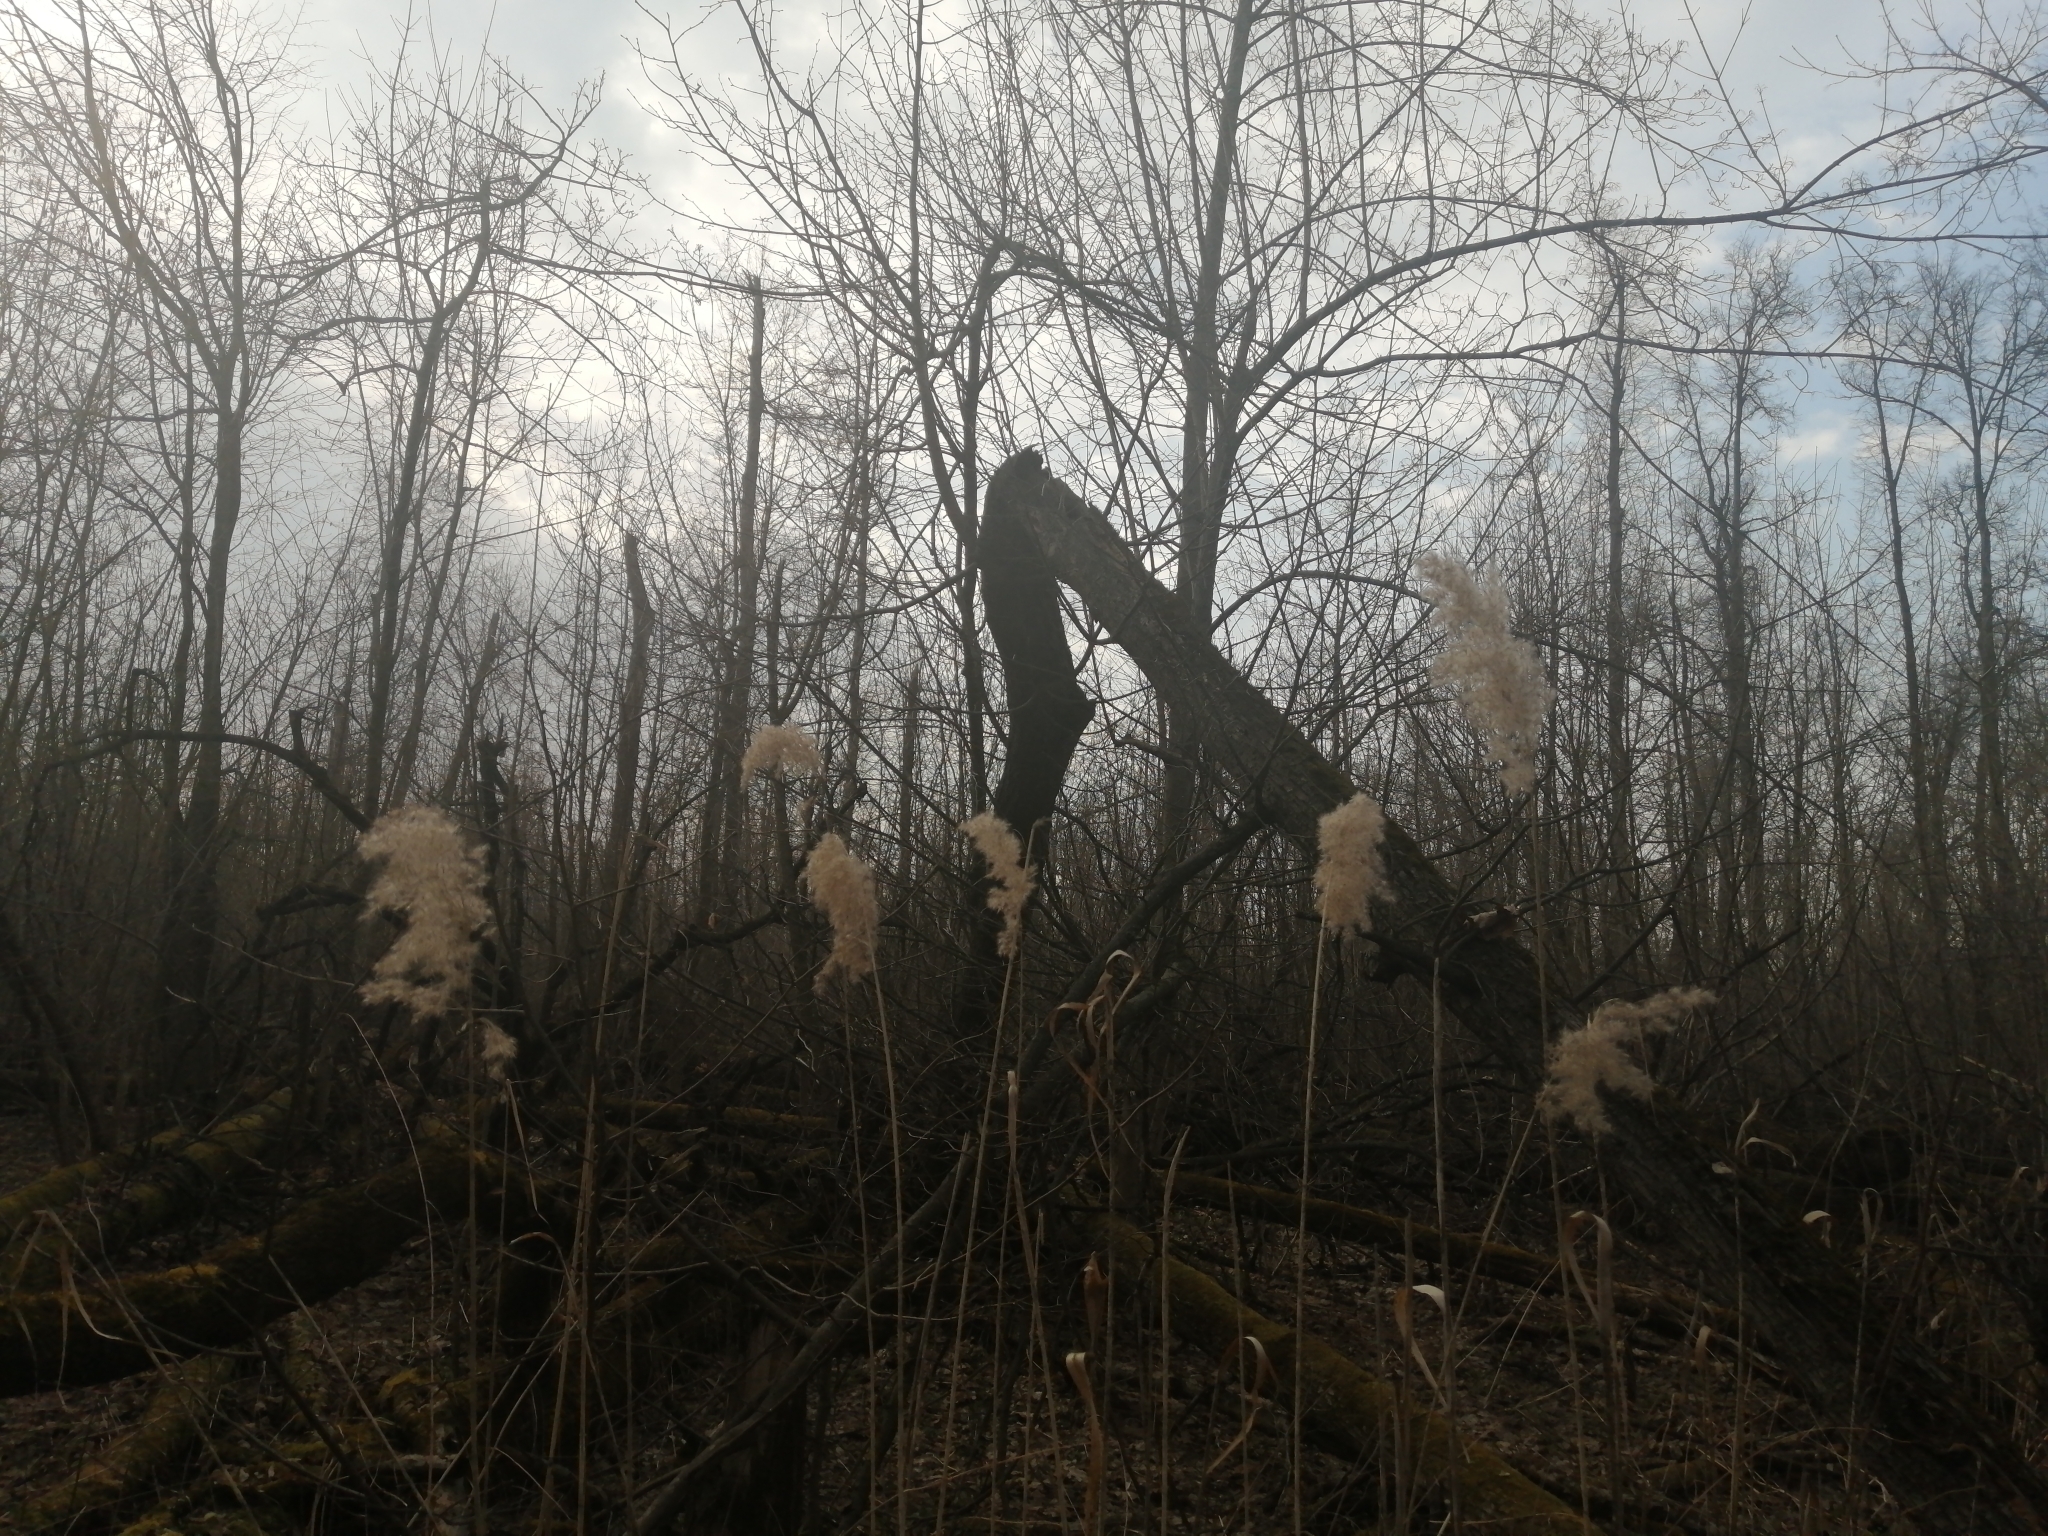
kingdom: Plantae
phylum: Tracheophyta
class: Liliopsida
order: Poales
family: Poaceae
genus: Phragmites
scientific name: Phragmites australis
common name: Common reed
